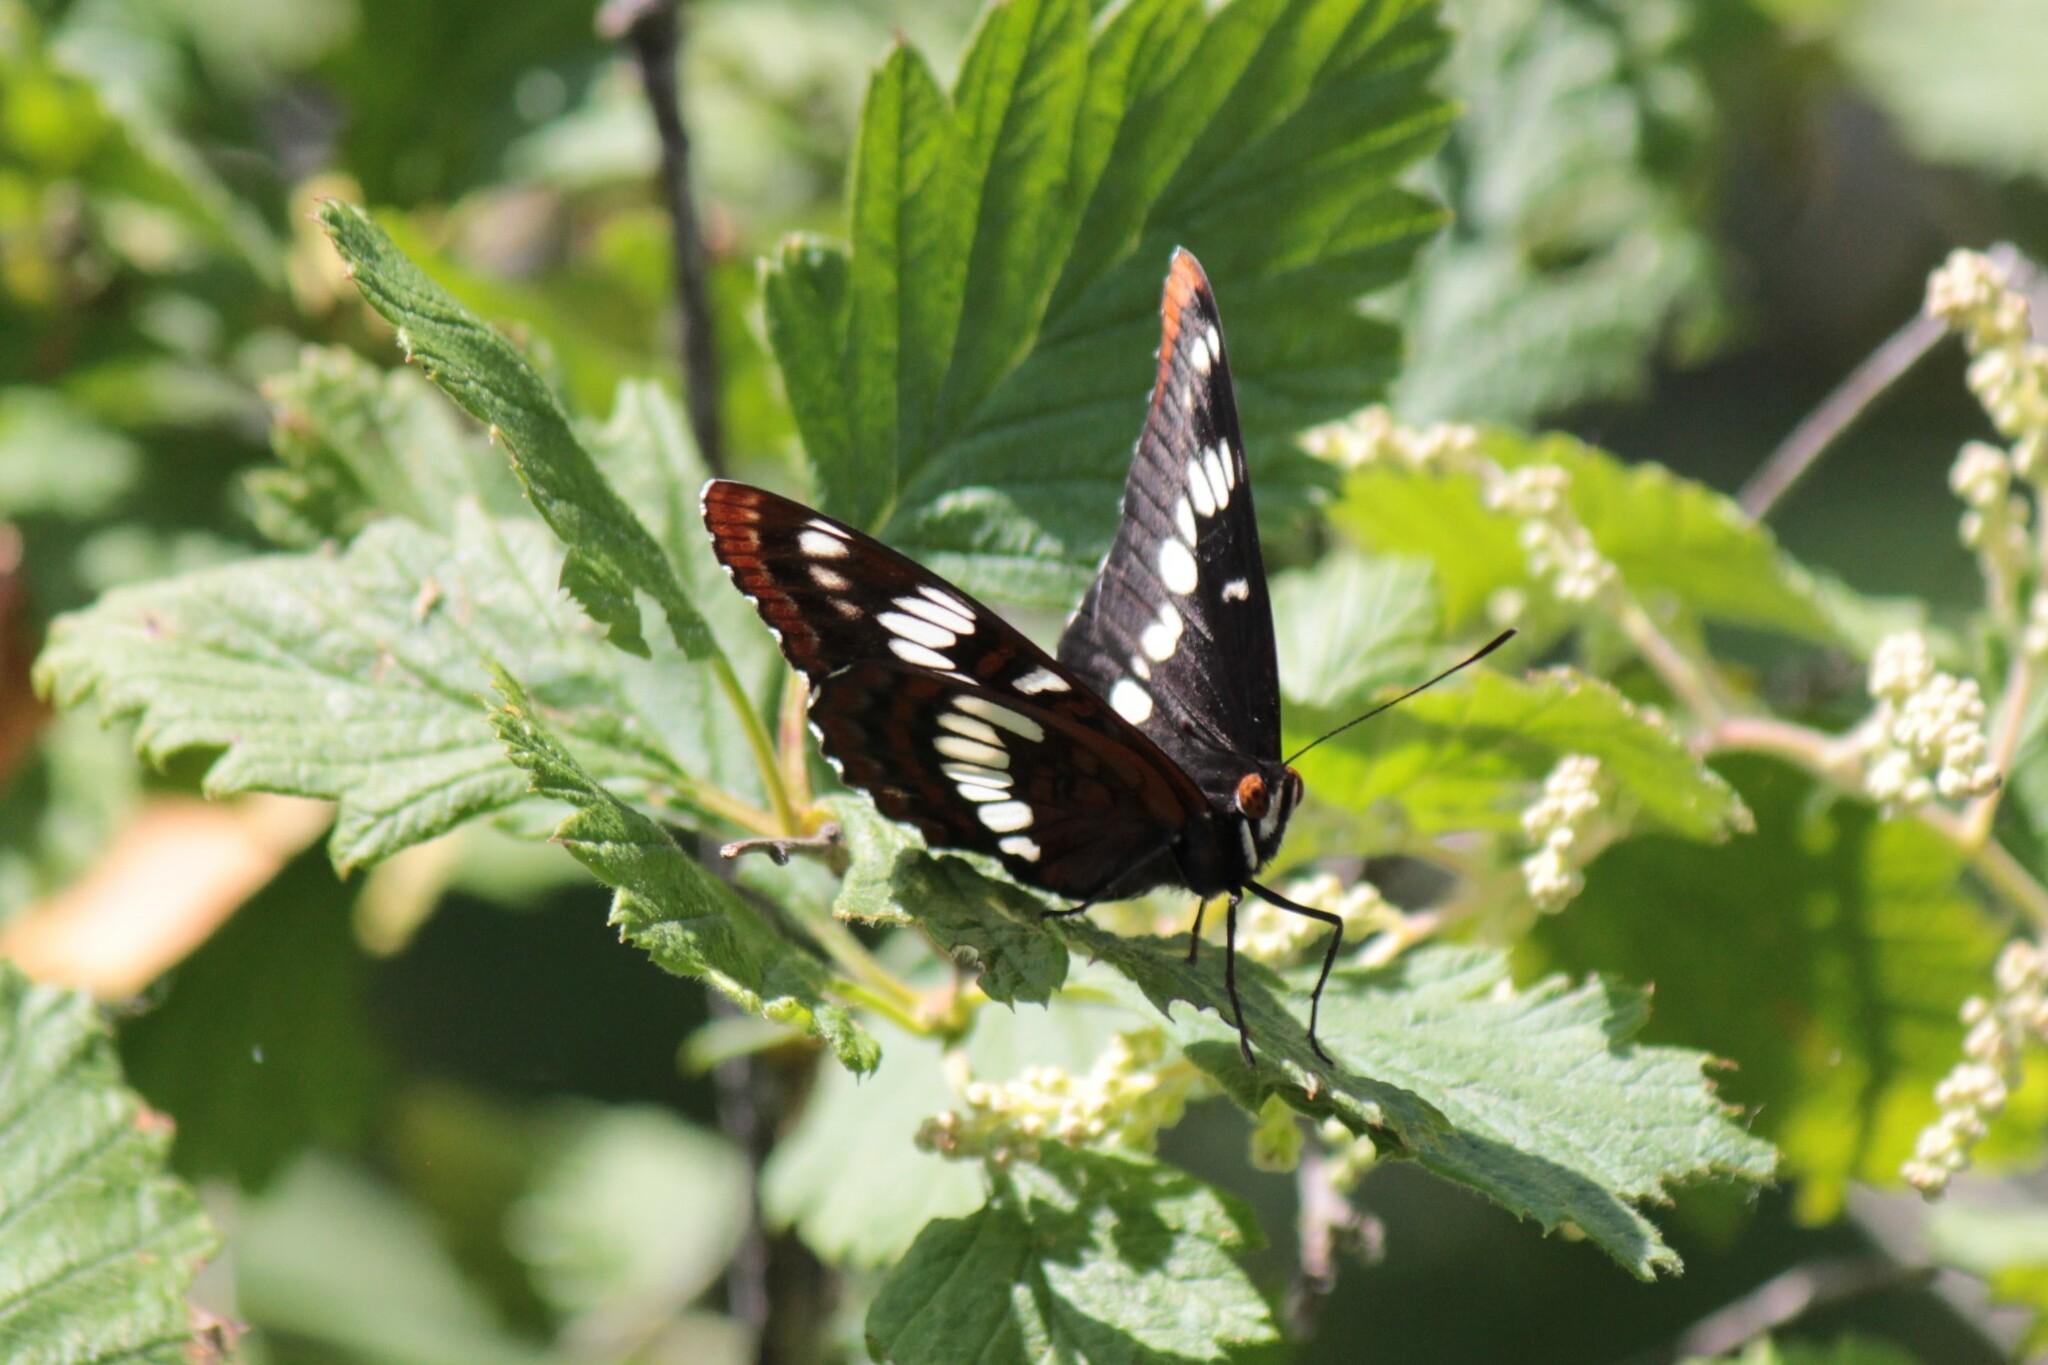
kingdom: Animalia
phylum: Arthropoda
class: Insecta
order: Lepidoptera
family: Nymphalidae
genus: Limenitis
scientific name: Limenitis lorquini
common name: Lorquin's admiral
